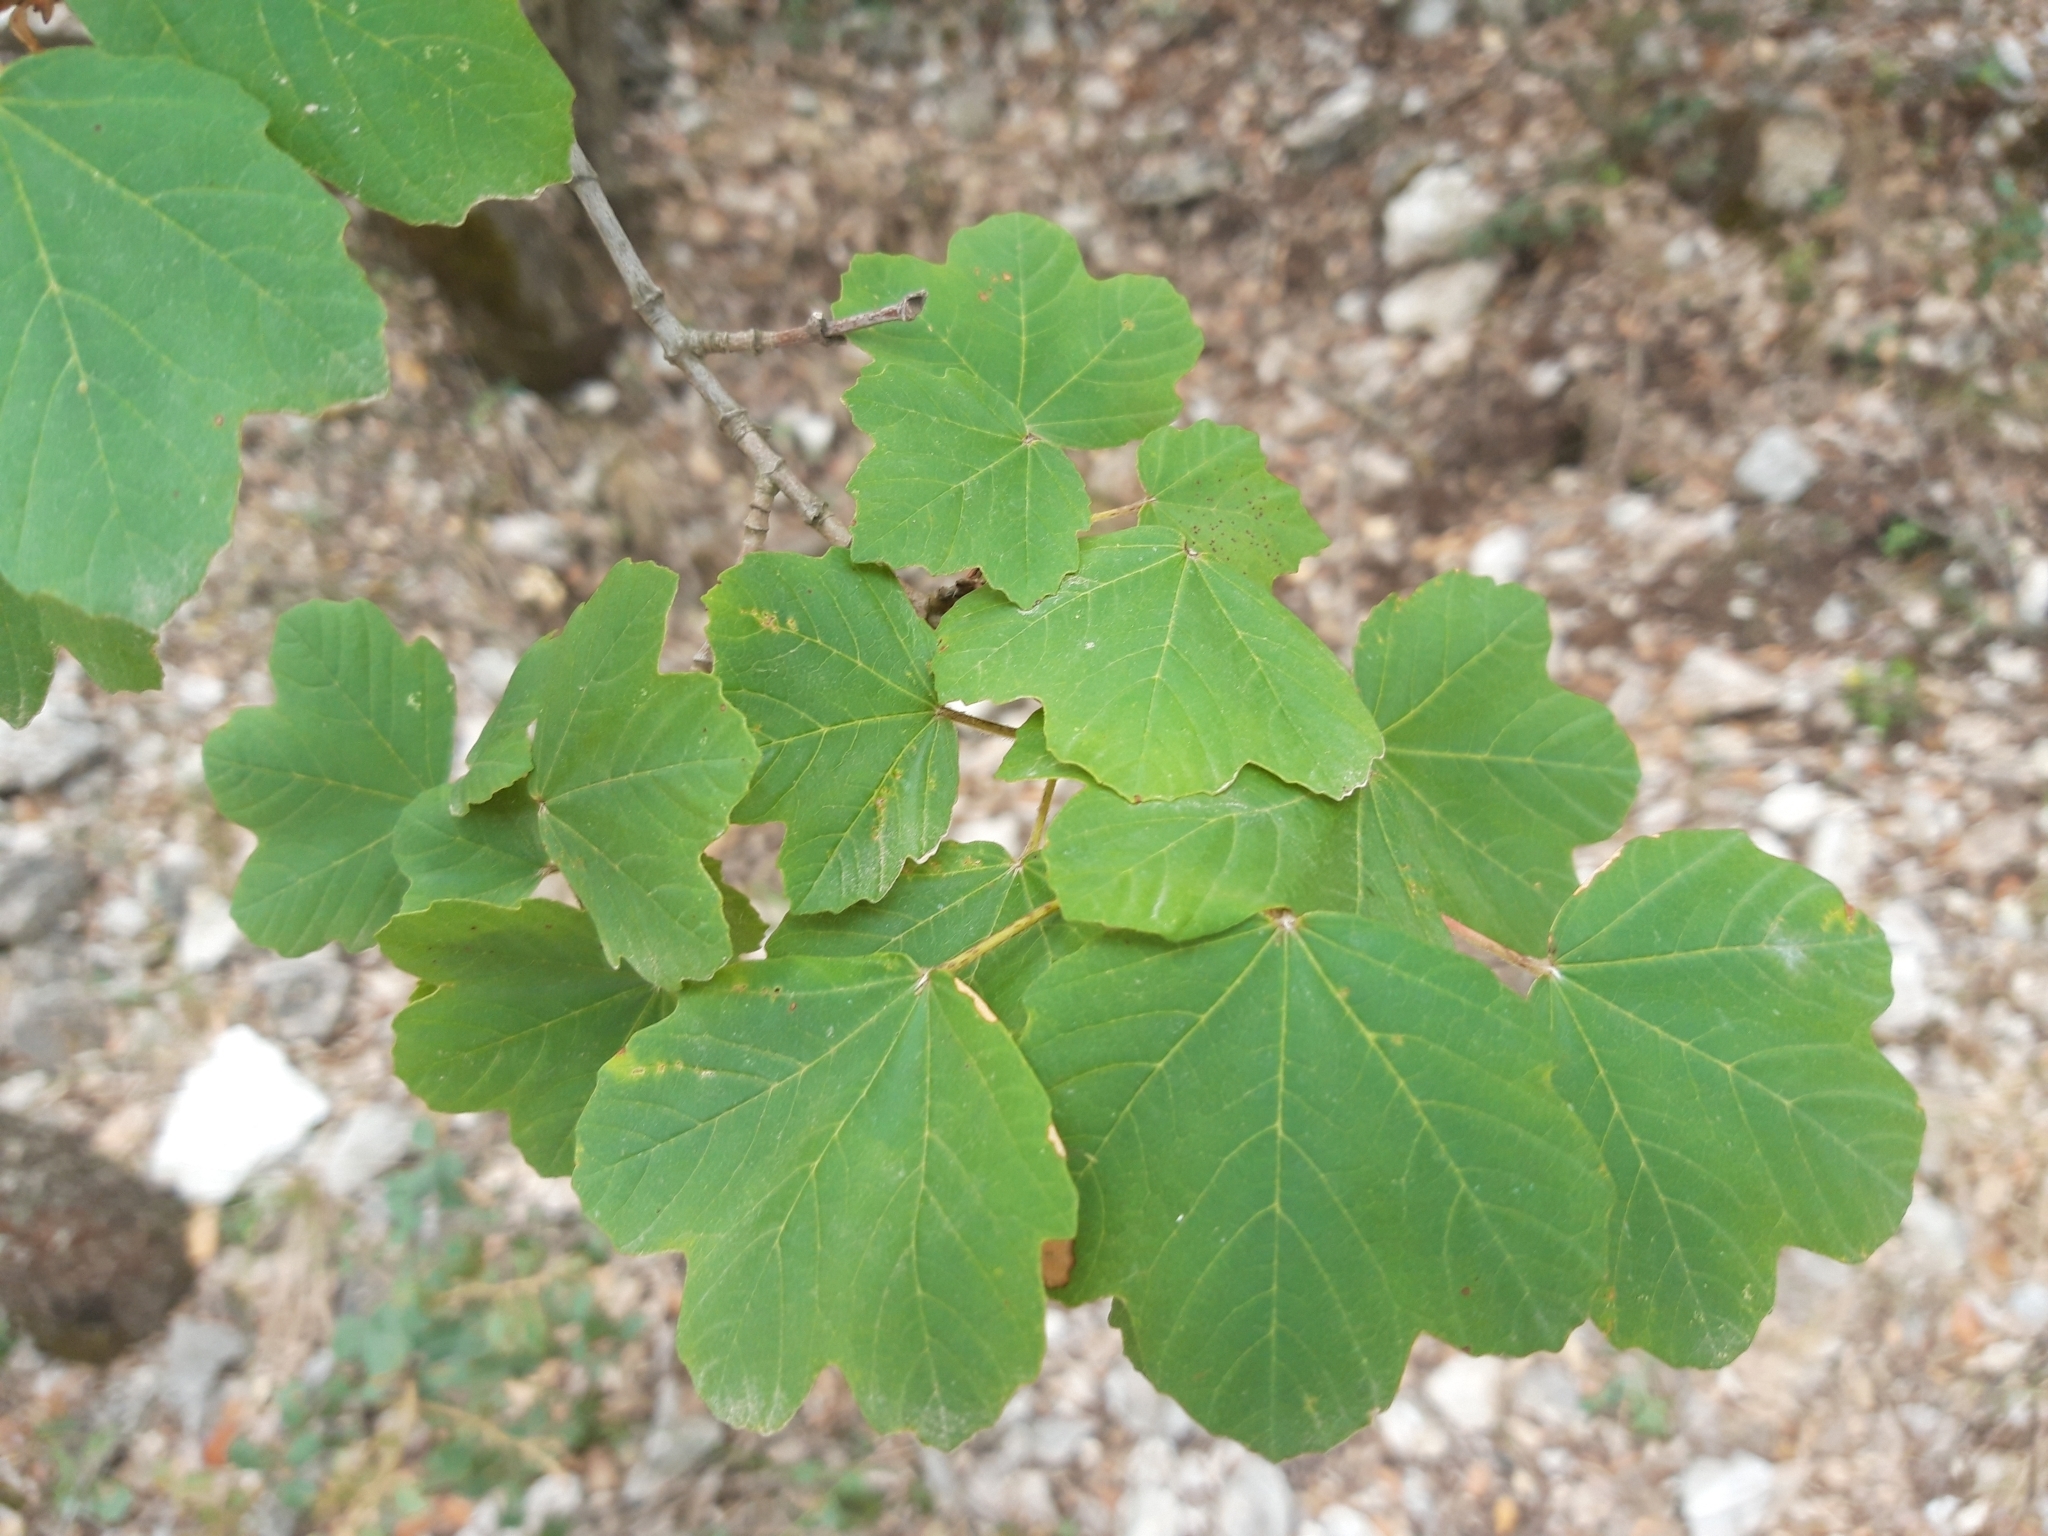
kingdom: Plantae
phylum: Tracheophyta
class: Magnoliopsida
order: Sapindales
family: Sapindaceae
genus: Acer
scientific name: Acer granatense
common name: Spanish maple
